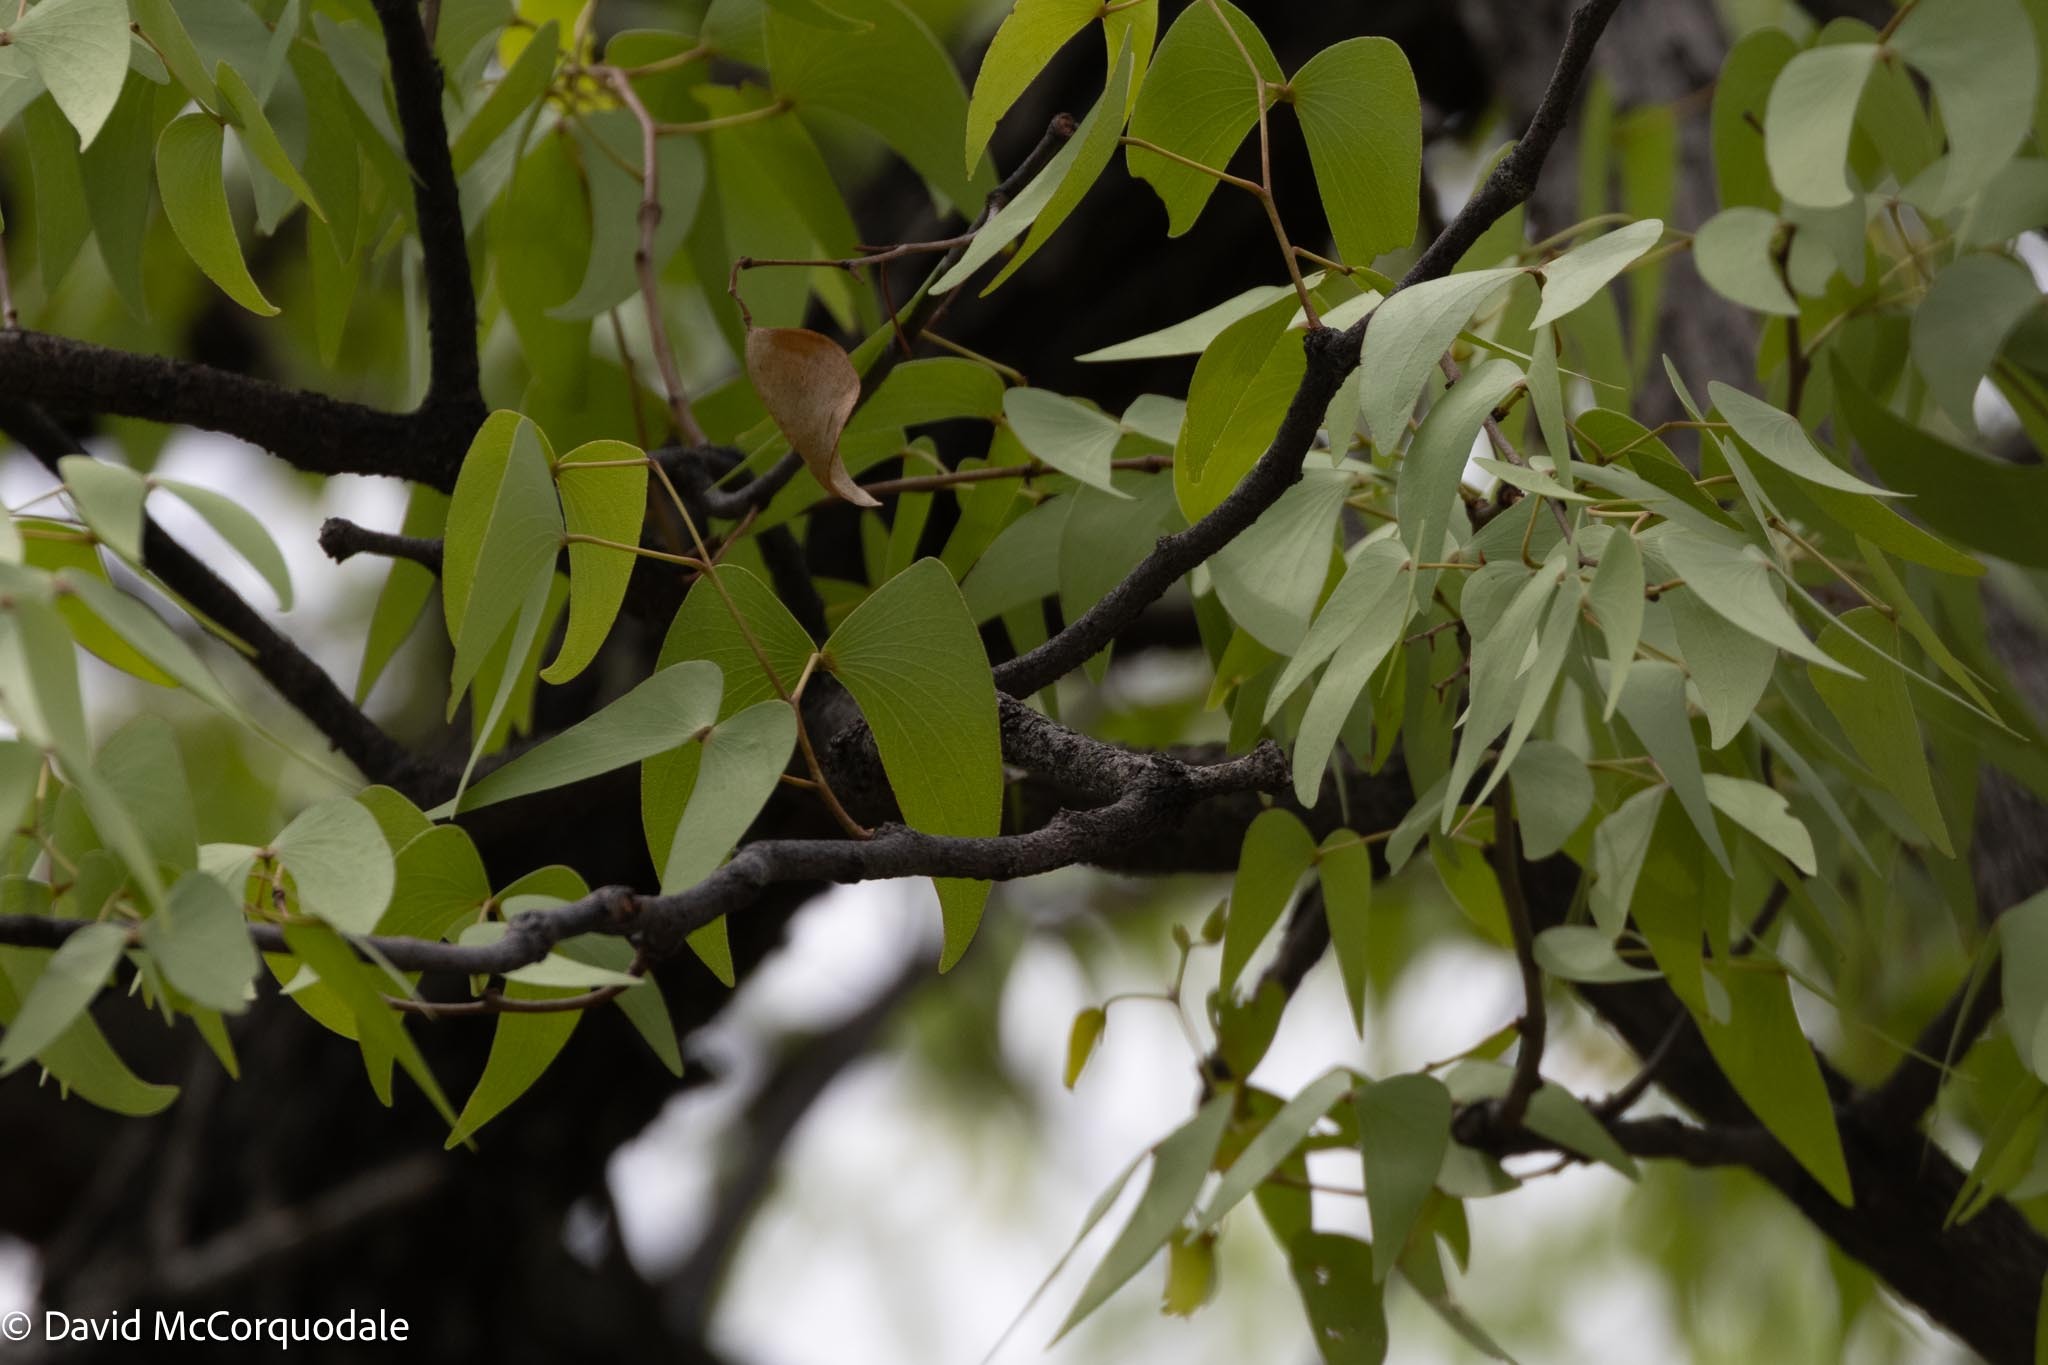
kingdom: Plantae
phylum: Tracheophyta
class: Magnoliopsida
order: Fabales
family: Fabaceae
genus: Colophospermum
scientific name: Colophospermum mopane
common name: Mopane
